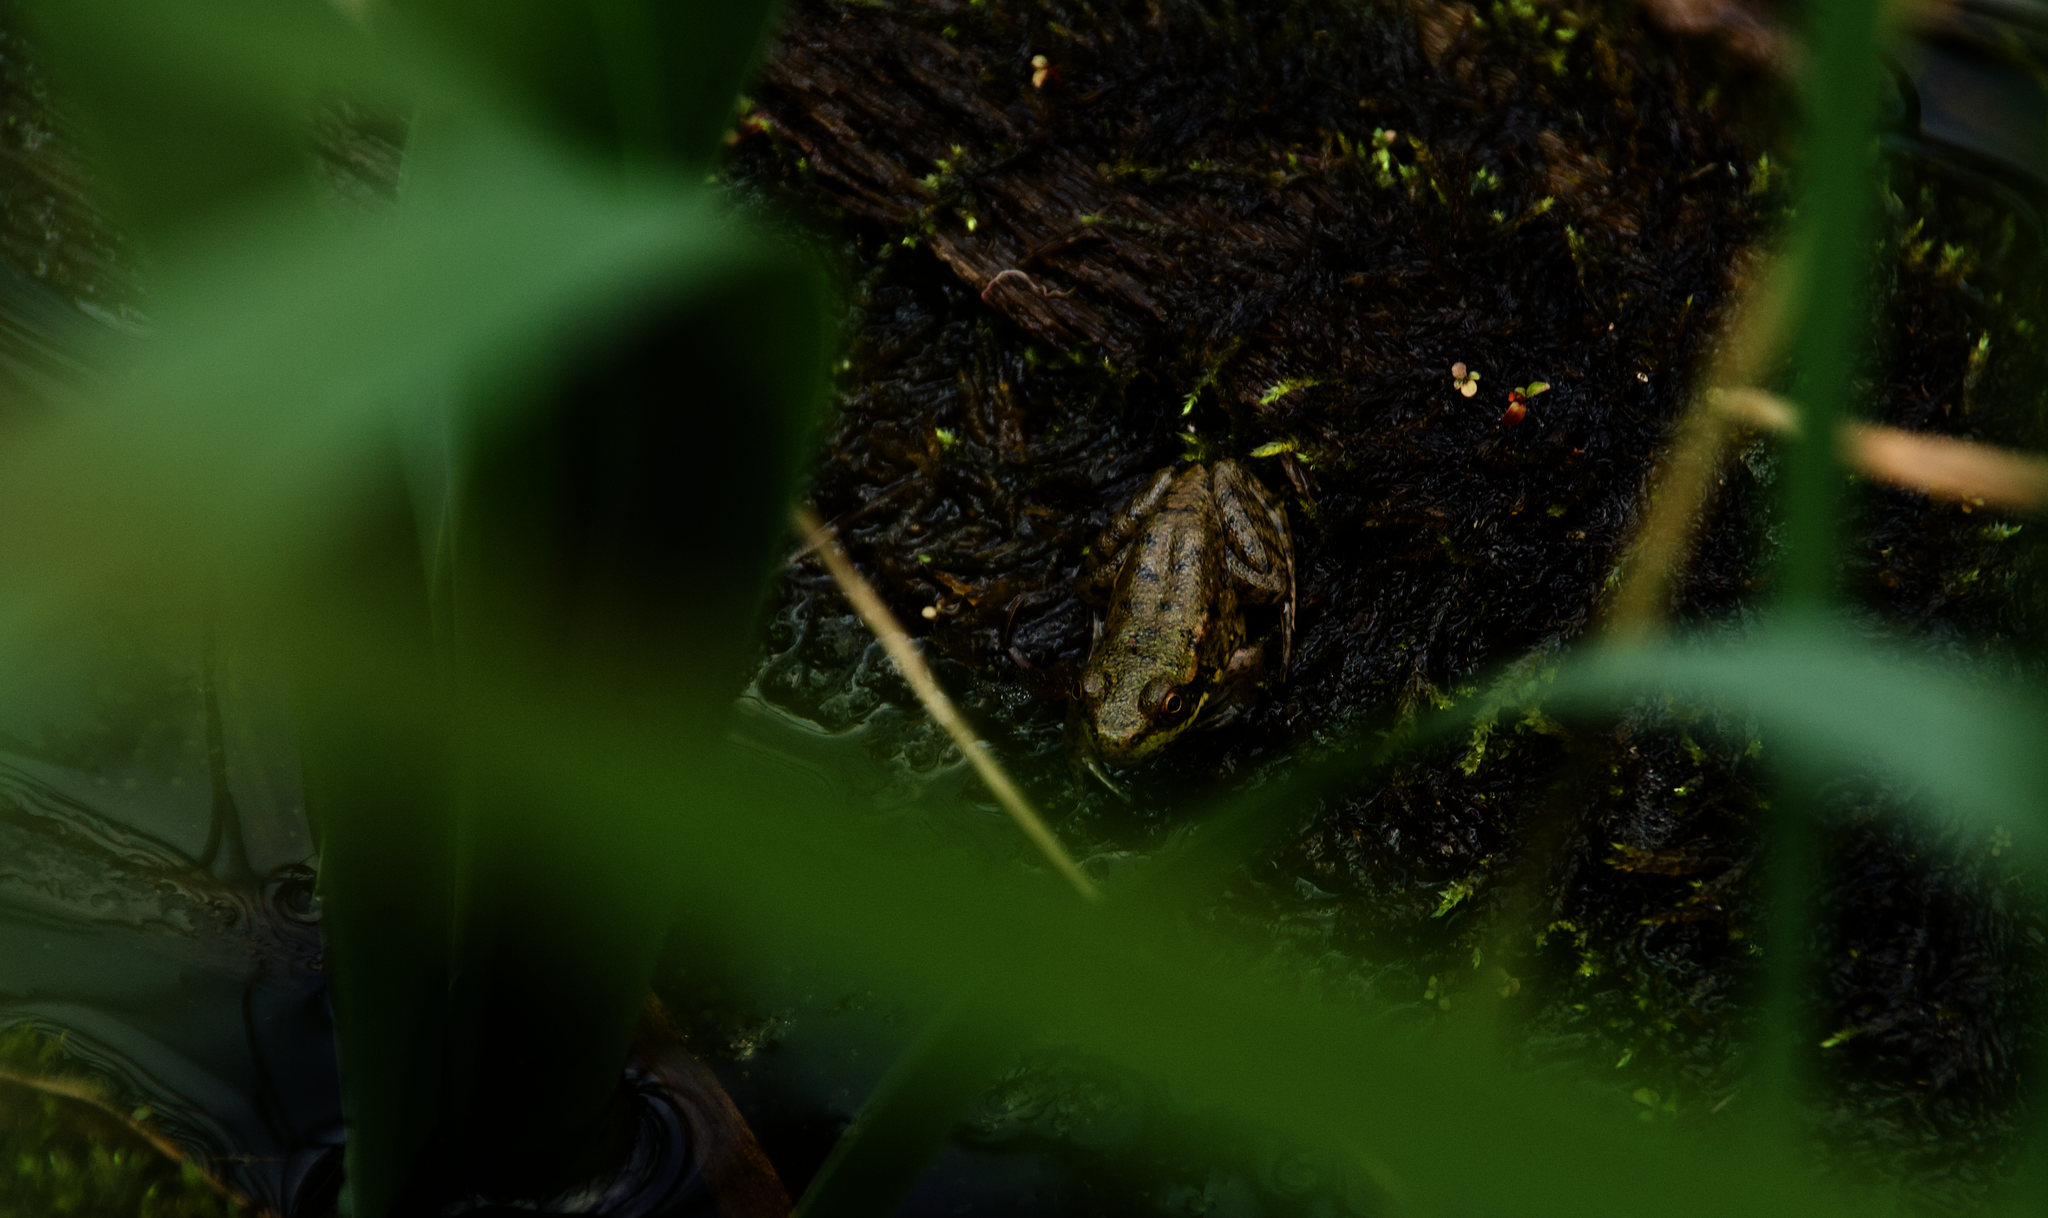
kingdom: Animalia
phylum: Chordata
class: Amphibia
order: Anura
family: Ranidae
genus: Lithobates
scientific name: Lithobates clamitans
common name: Green frog
